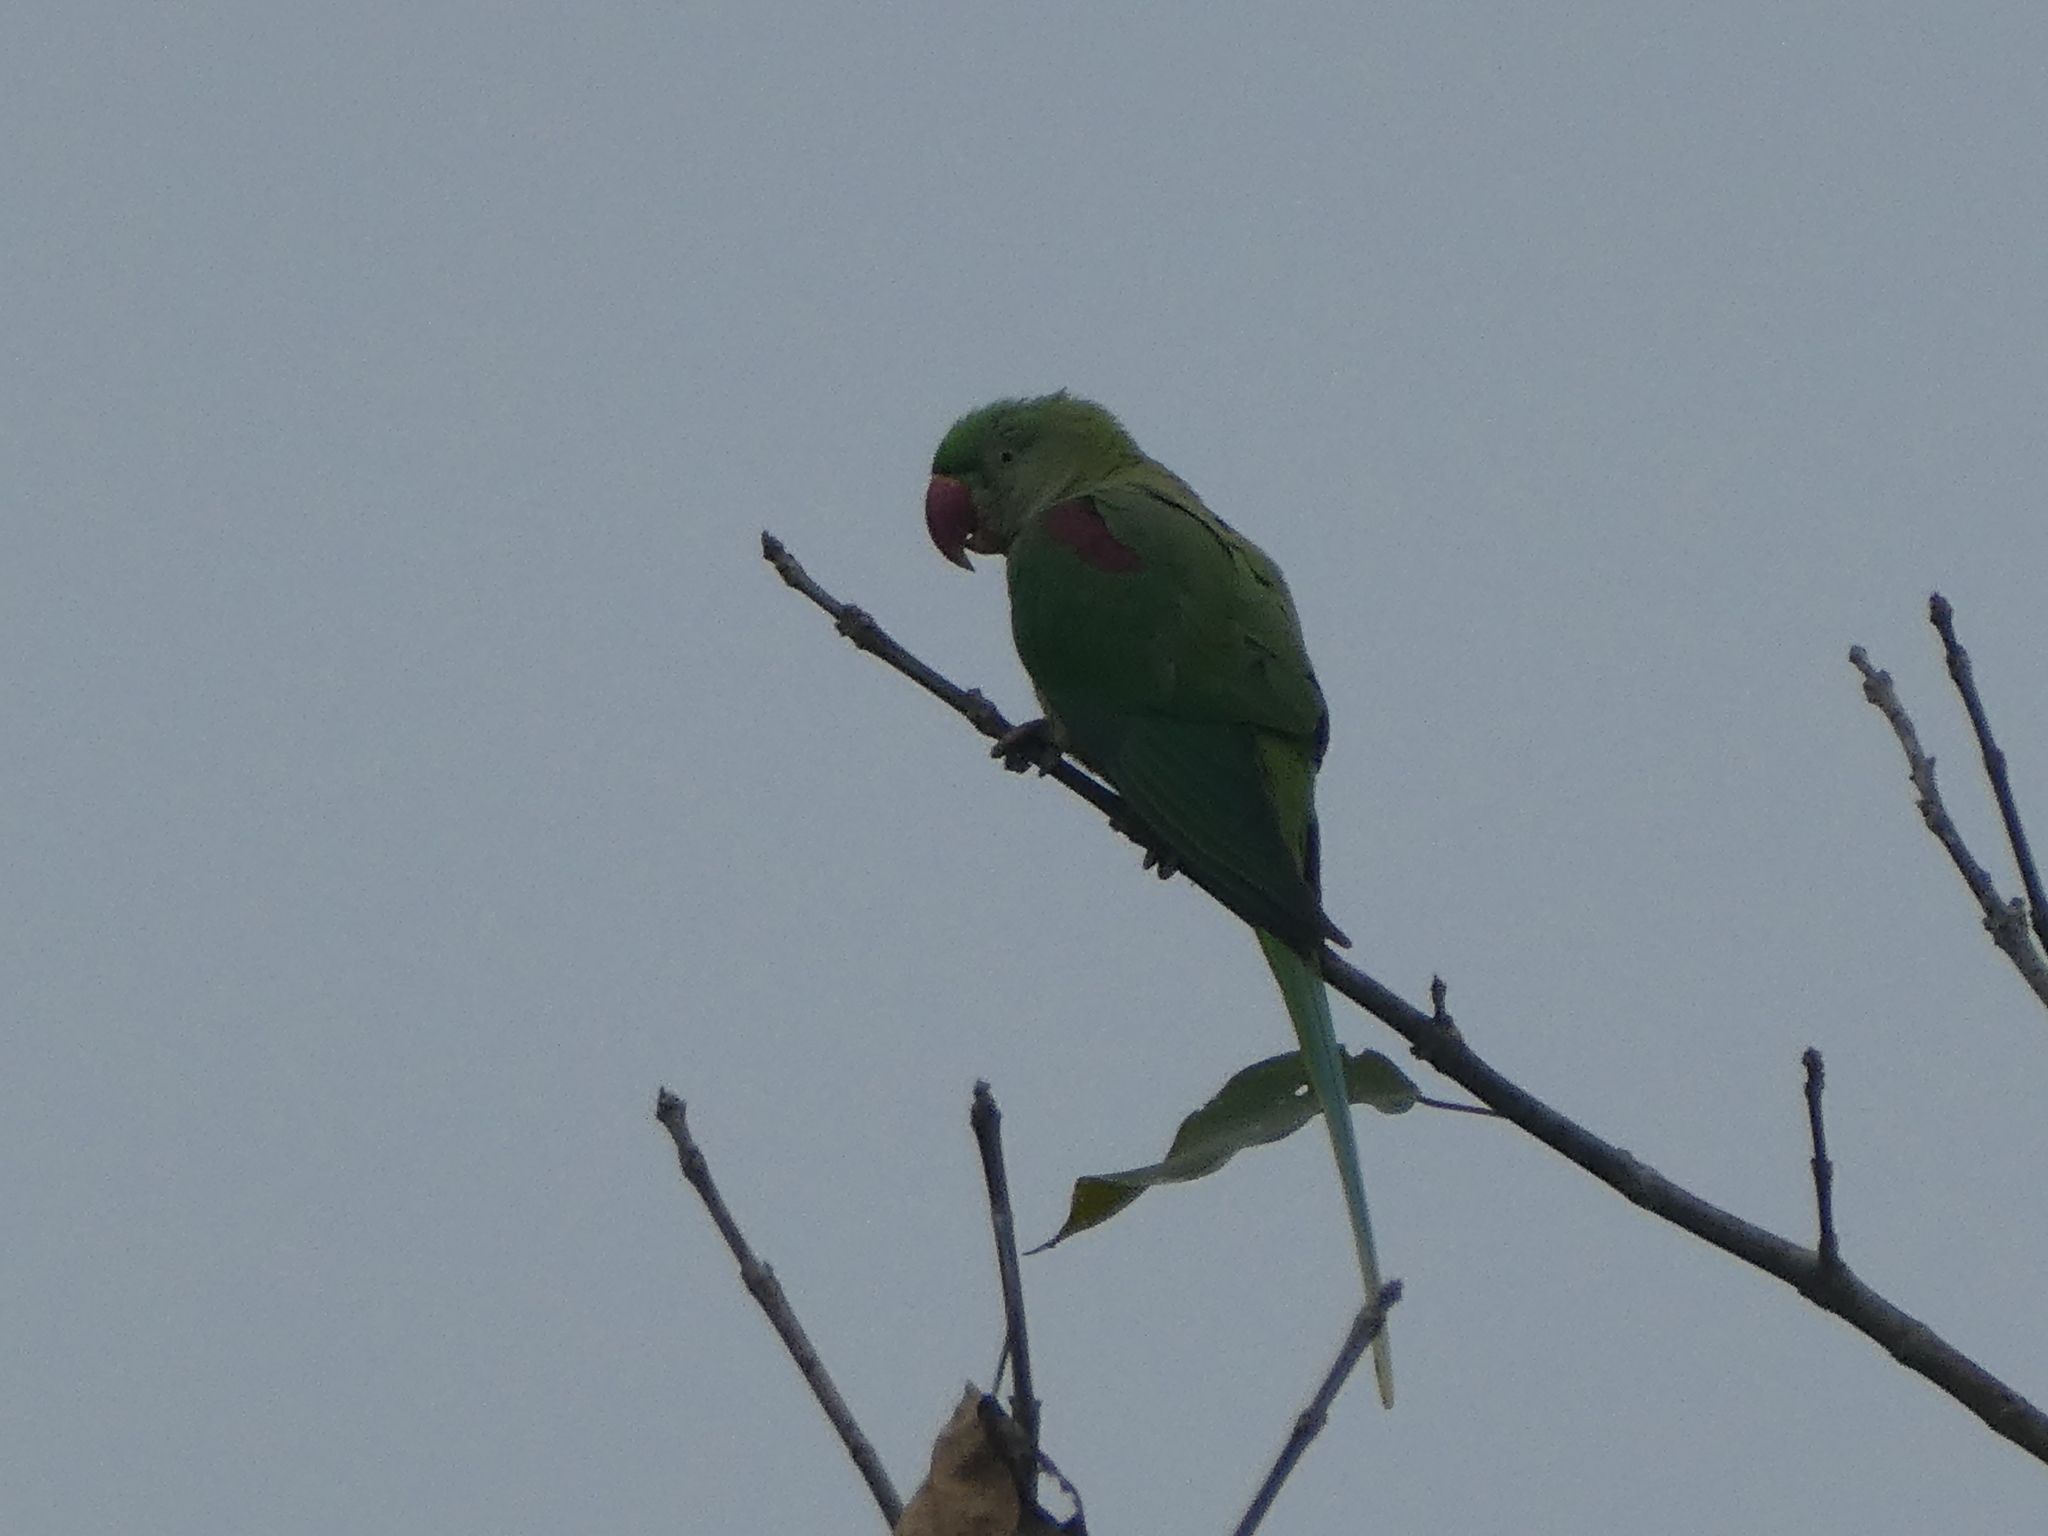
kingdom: Animalia
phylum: Chordata
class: Aves
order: Psittaciformes
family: Psittacidae
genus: Psittacula
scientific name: Psittacula eupatria
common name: Alexandrine parakeet
